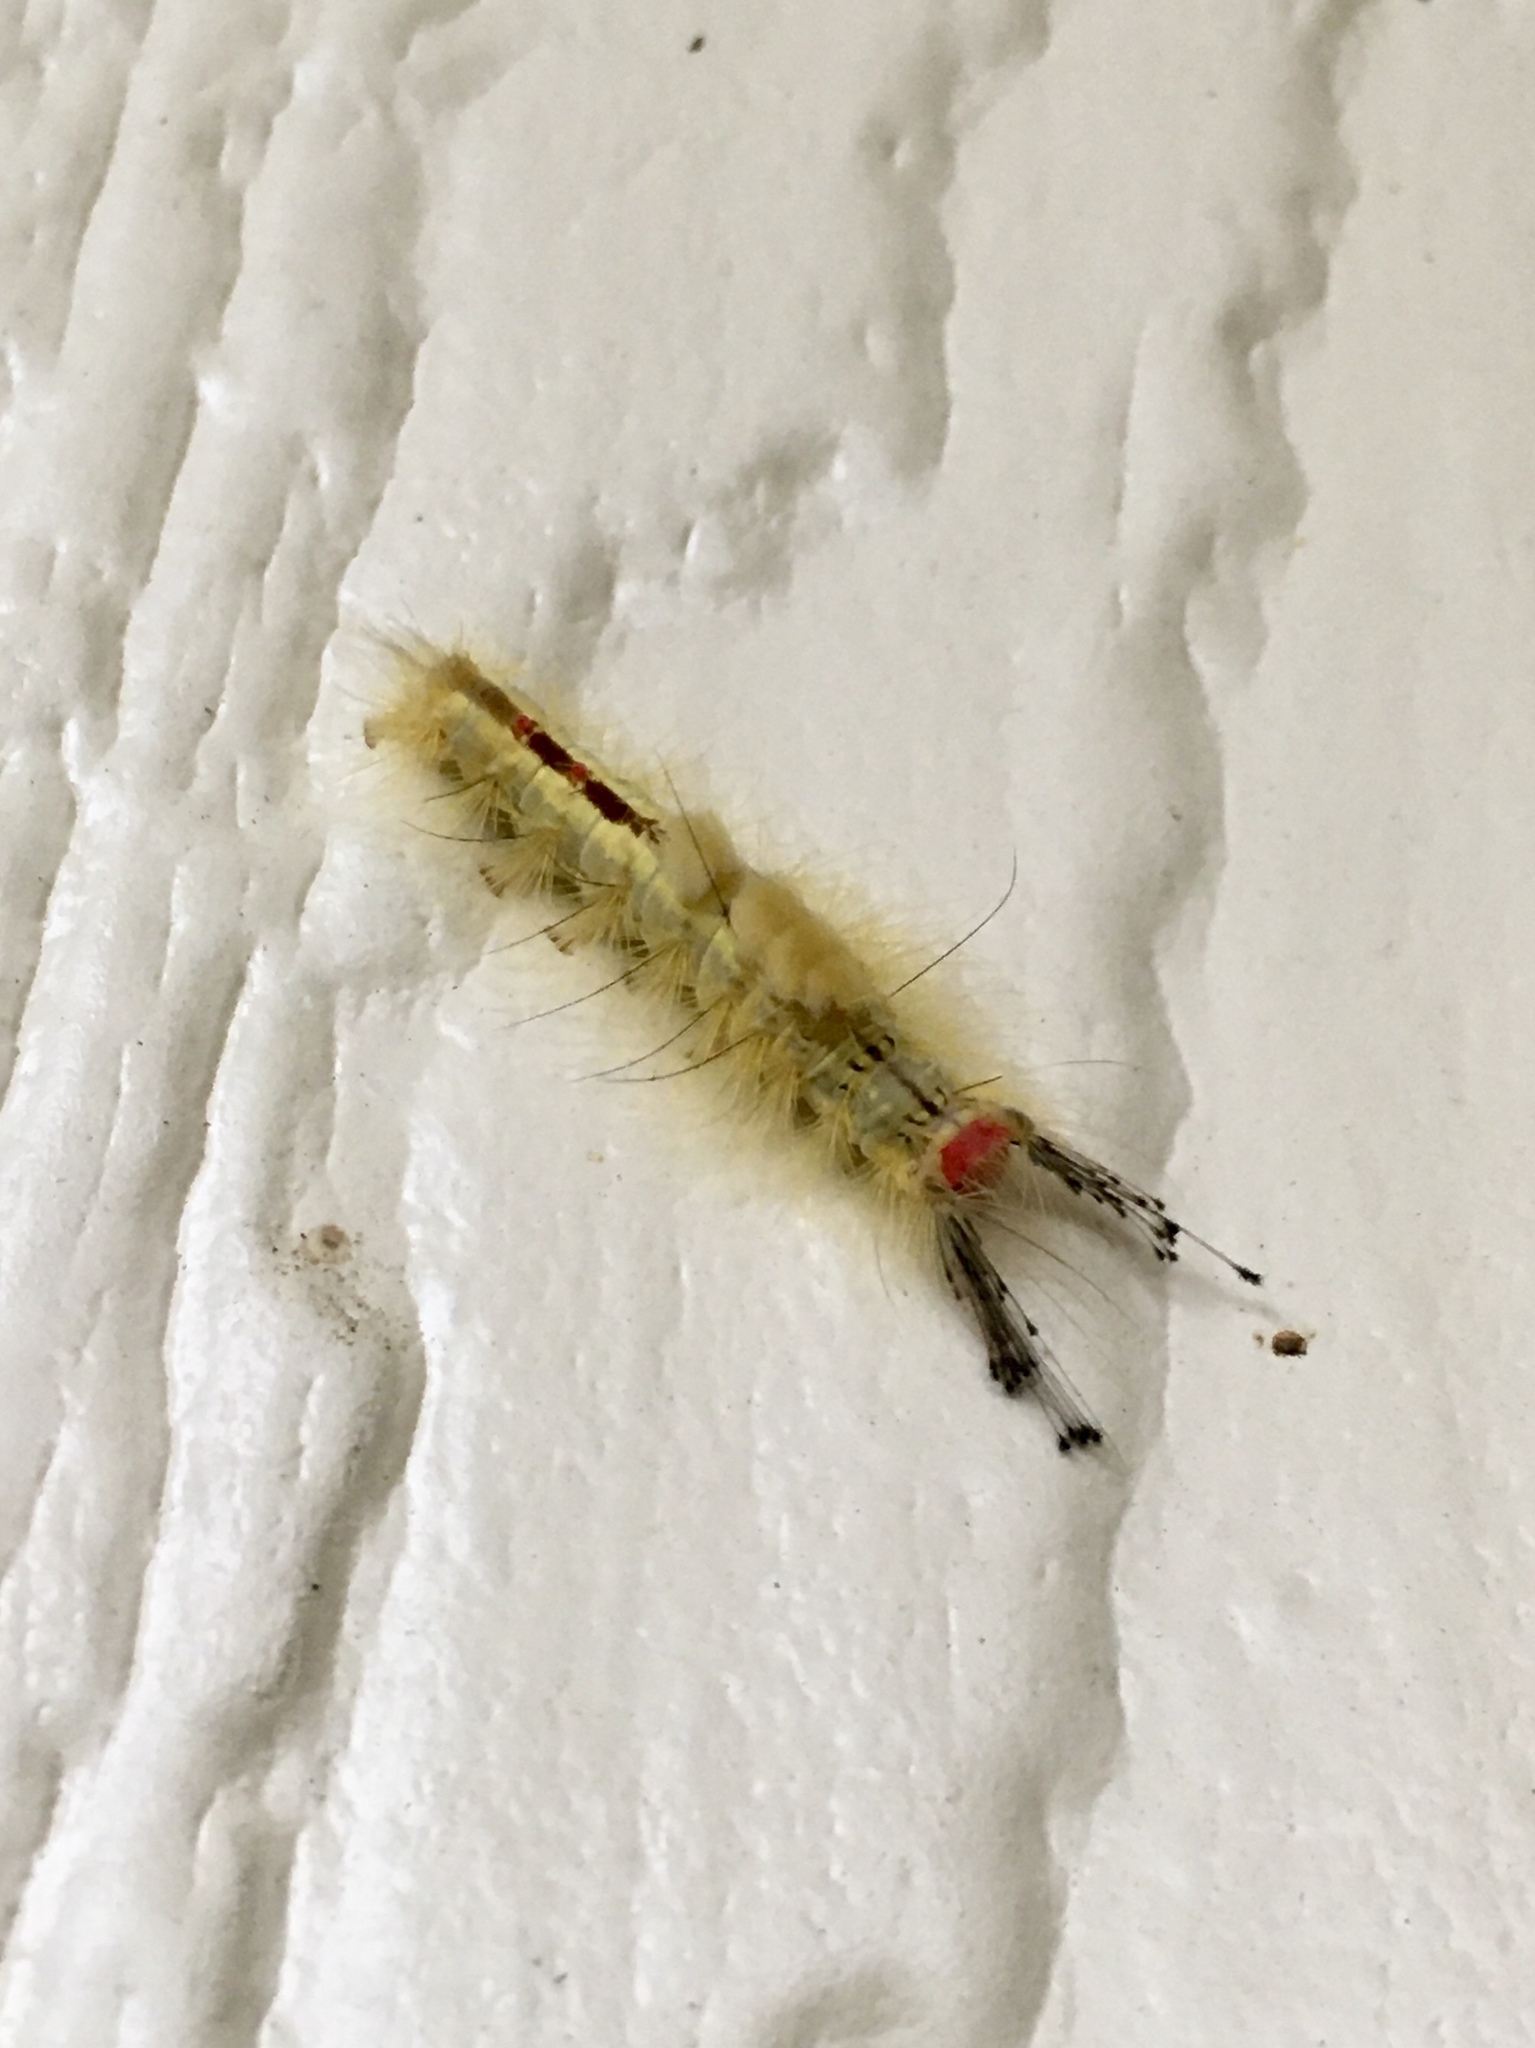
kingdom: Animalia
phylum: Arthropoda
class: Insecta
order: Lepidoptera
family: Erebidae
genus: Orgyia
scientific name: Orgyia leucostigma
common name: White-marked tussock moth
